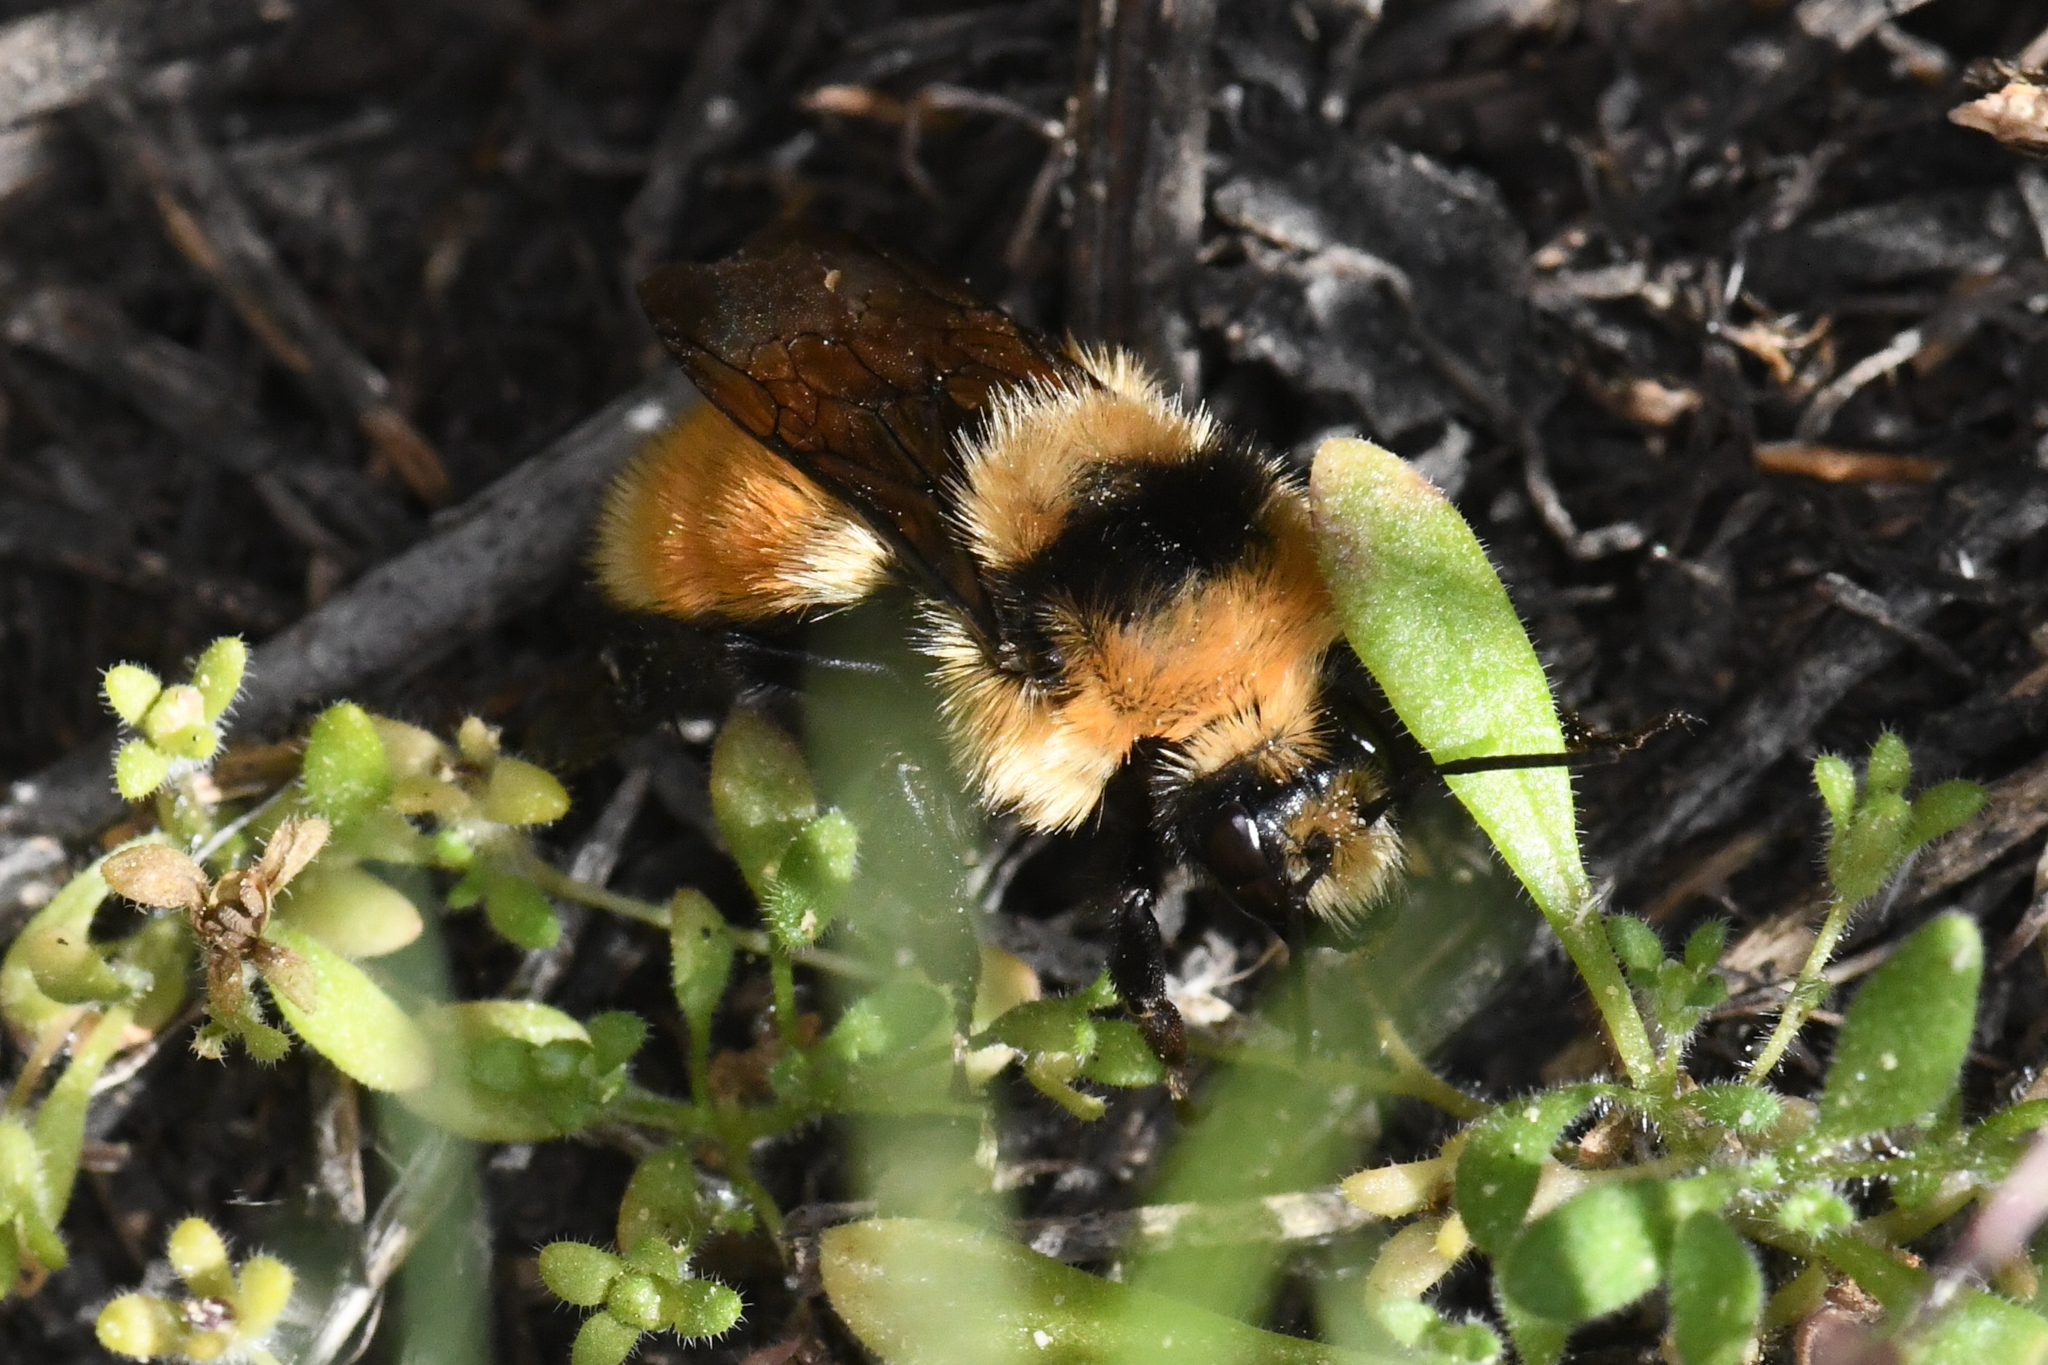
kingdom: Animalia
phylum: Arthropoda
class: Insecta
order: Hymenoptera
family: Apidae
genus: Bombus
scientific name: Bombus huntii
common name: Hunt bumble bee
